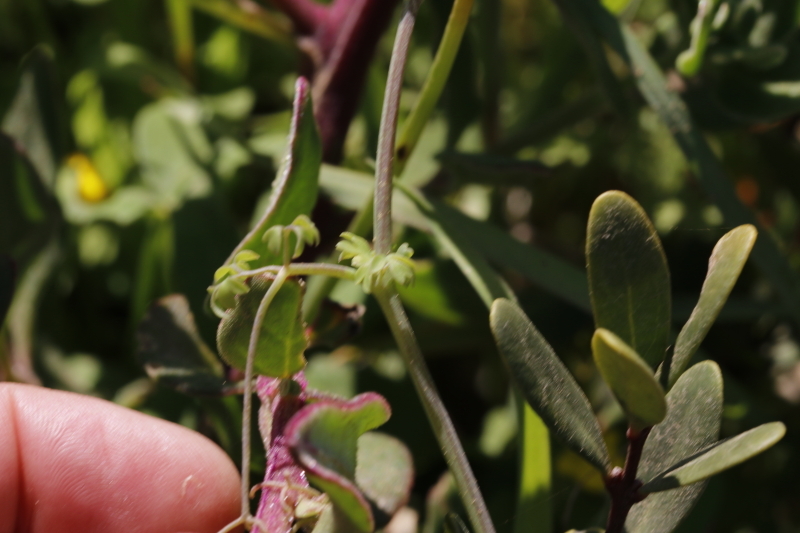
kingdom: Plantae
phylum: Tracheophyta
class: Magnoliopsida
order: Ranunculales
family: Papaveraceae
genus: Cysticapnos
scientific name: Cysticapnos vesicaria
